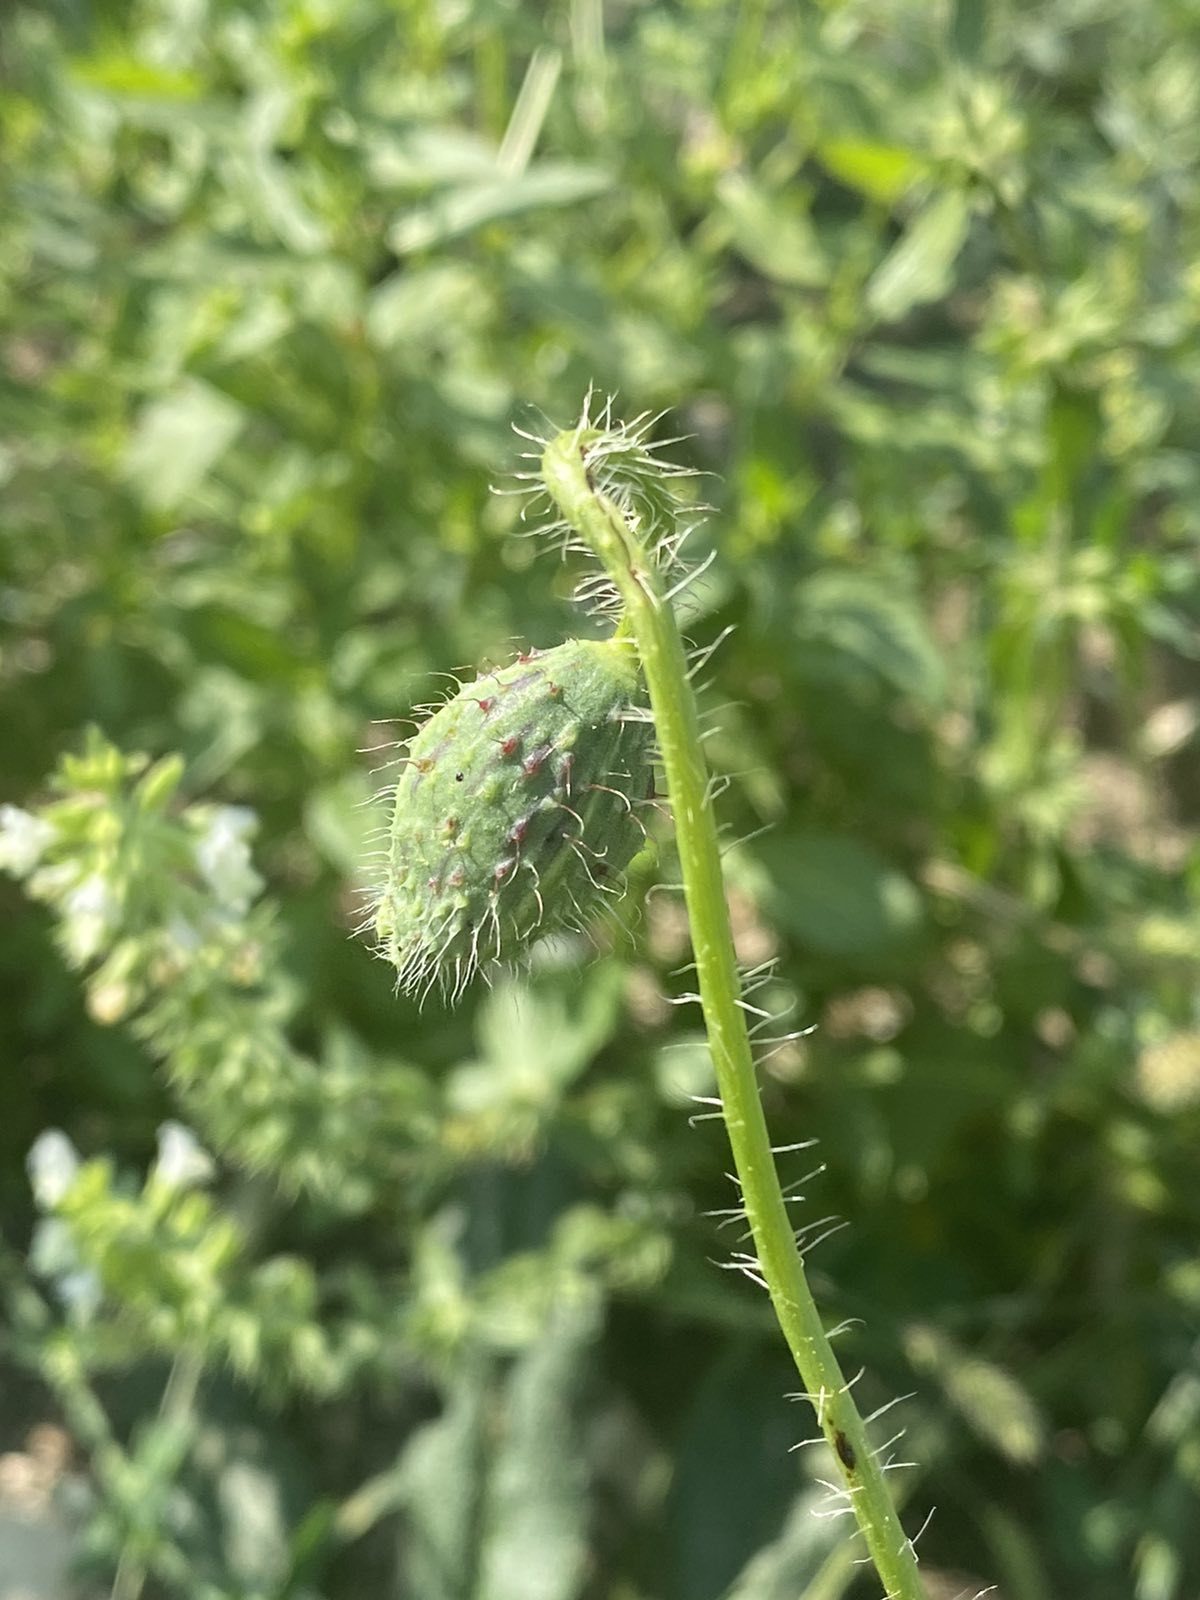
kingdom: Plantae
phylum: Tracheophyta
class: Magnoliopsida
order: Ranunculales
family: Papaveraceae
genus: Papaver
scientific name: Papaver rhoeas
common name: Corn poppy
